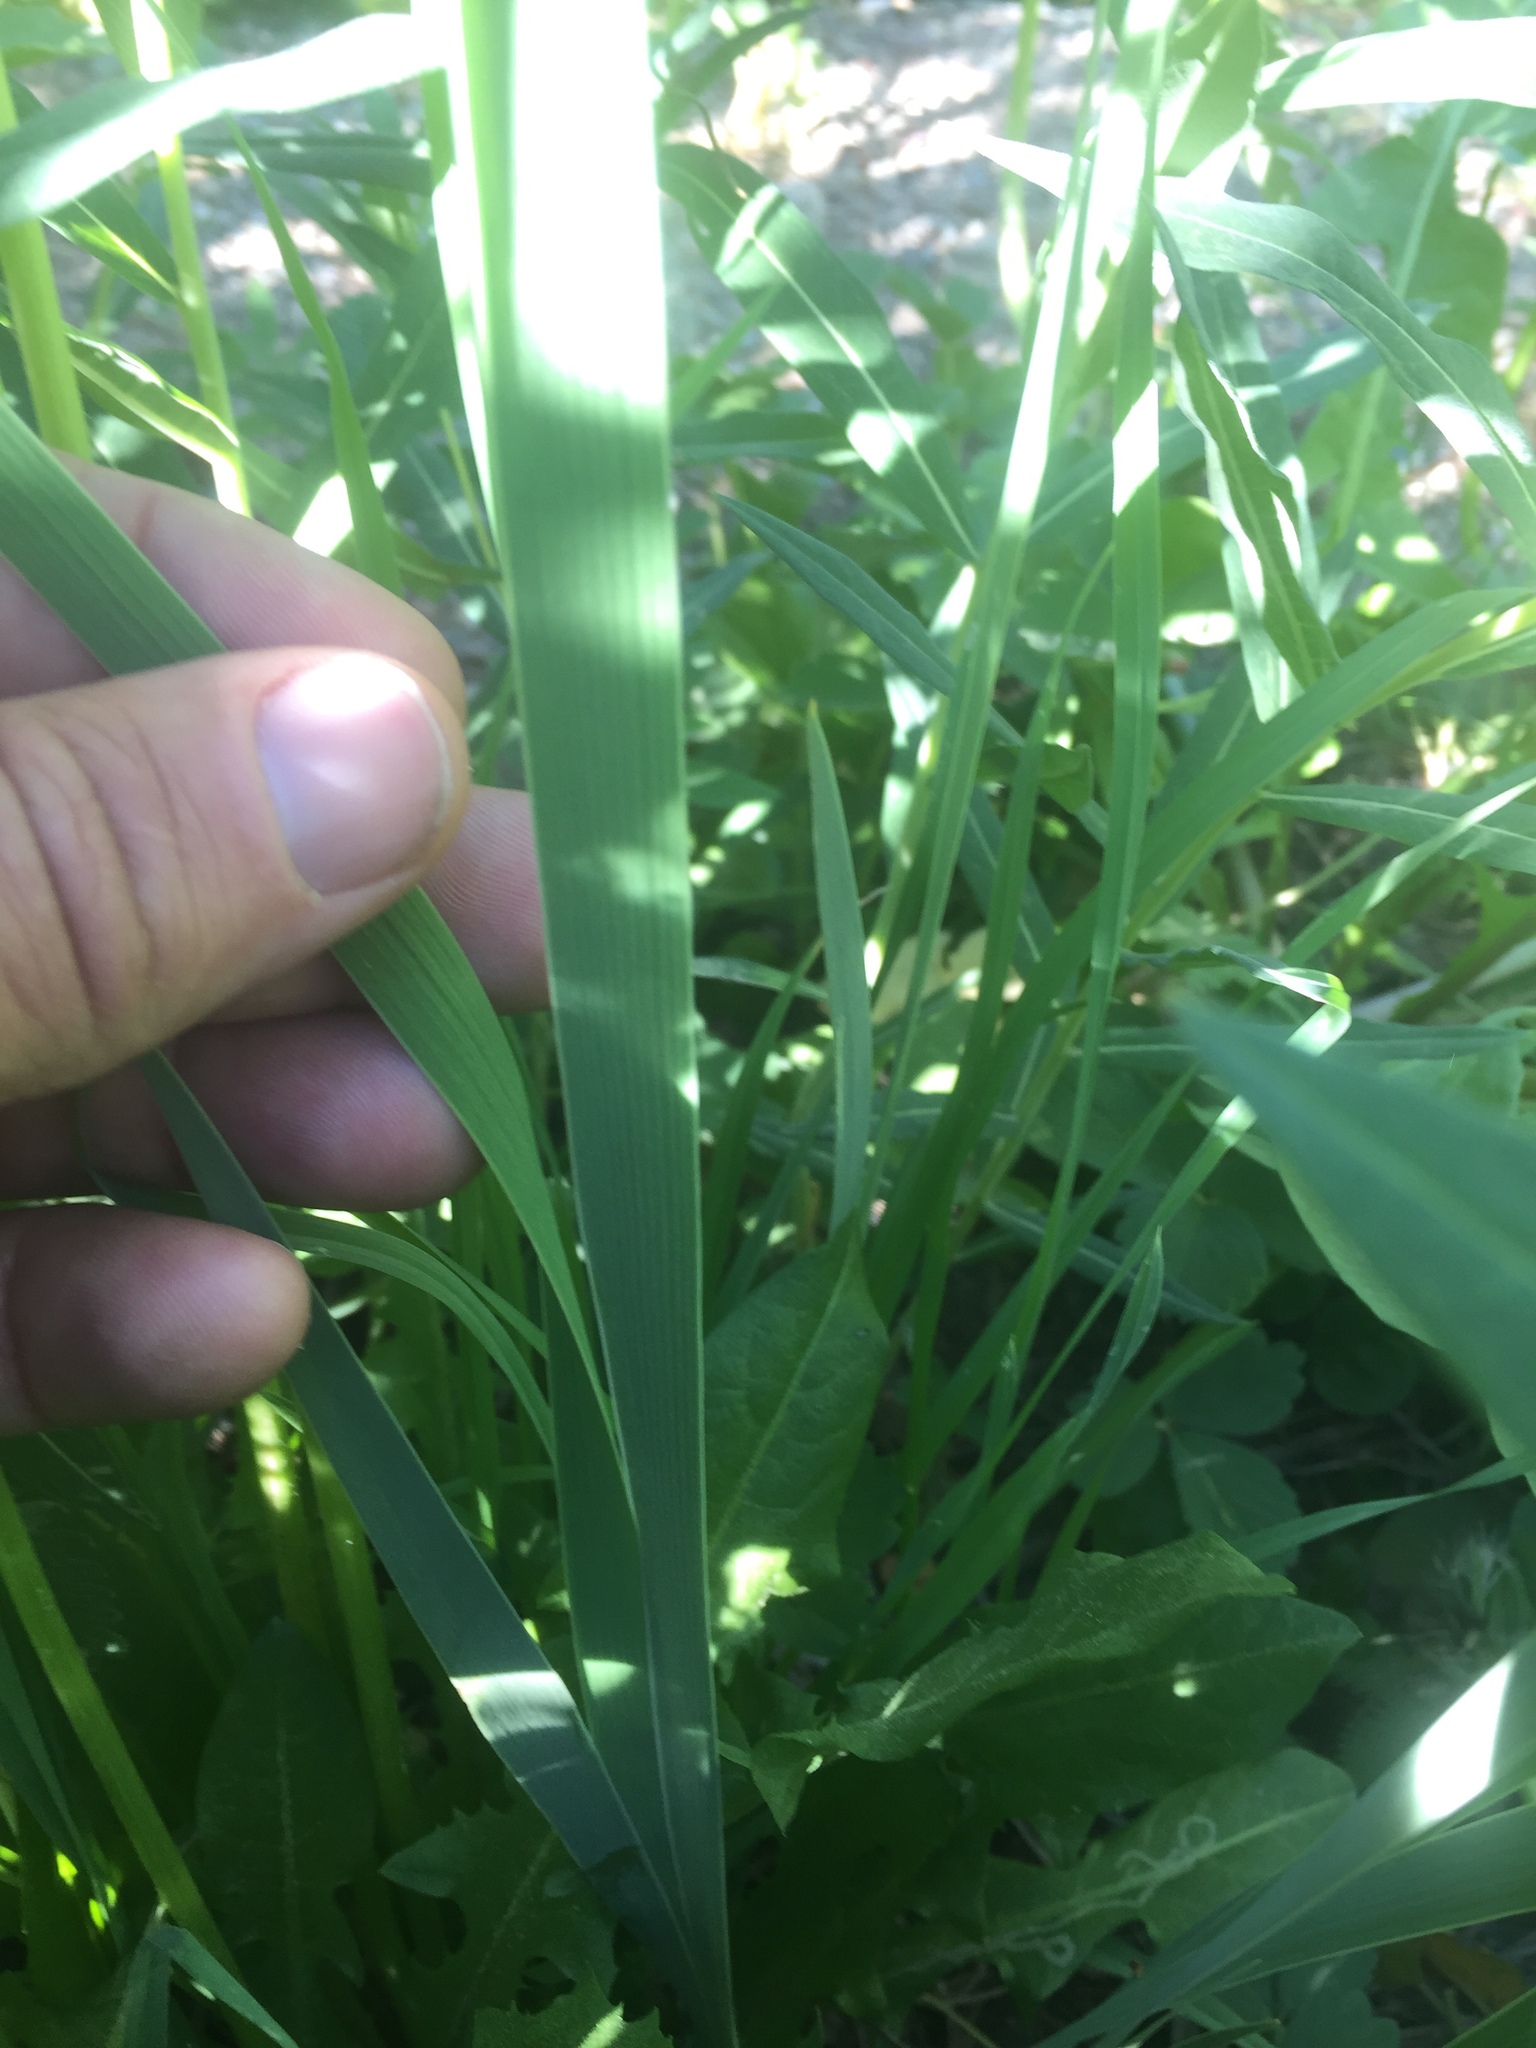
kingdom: Plantae
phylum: Tracheophyta
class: Liliopsida
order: Asparagales
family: Iridaceae
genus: Iris
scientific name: Iris missouriensis
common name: Rocky mountain iris
